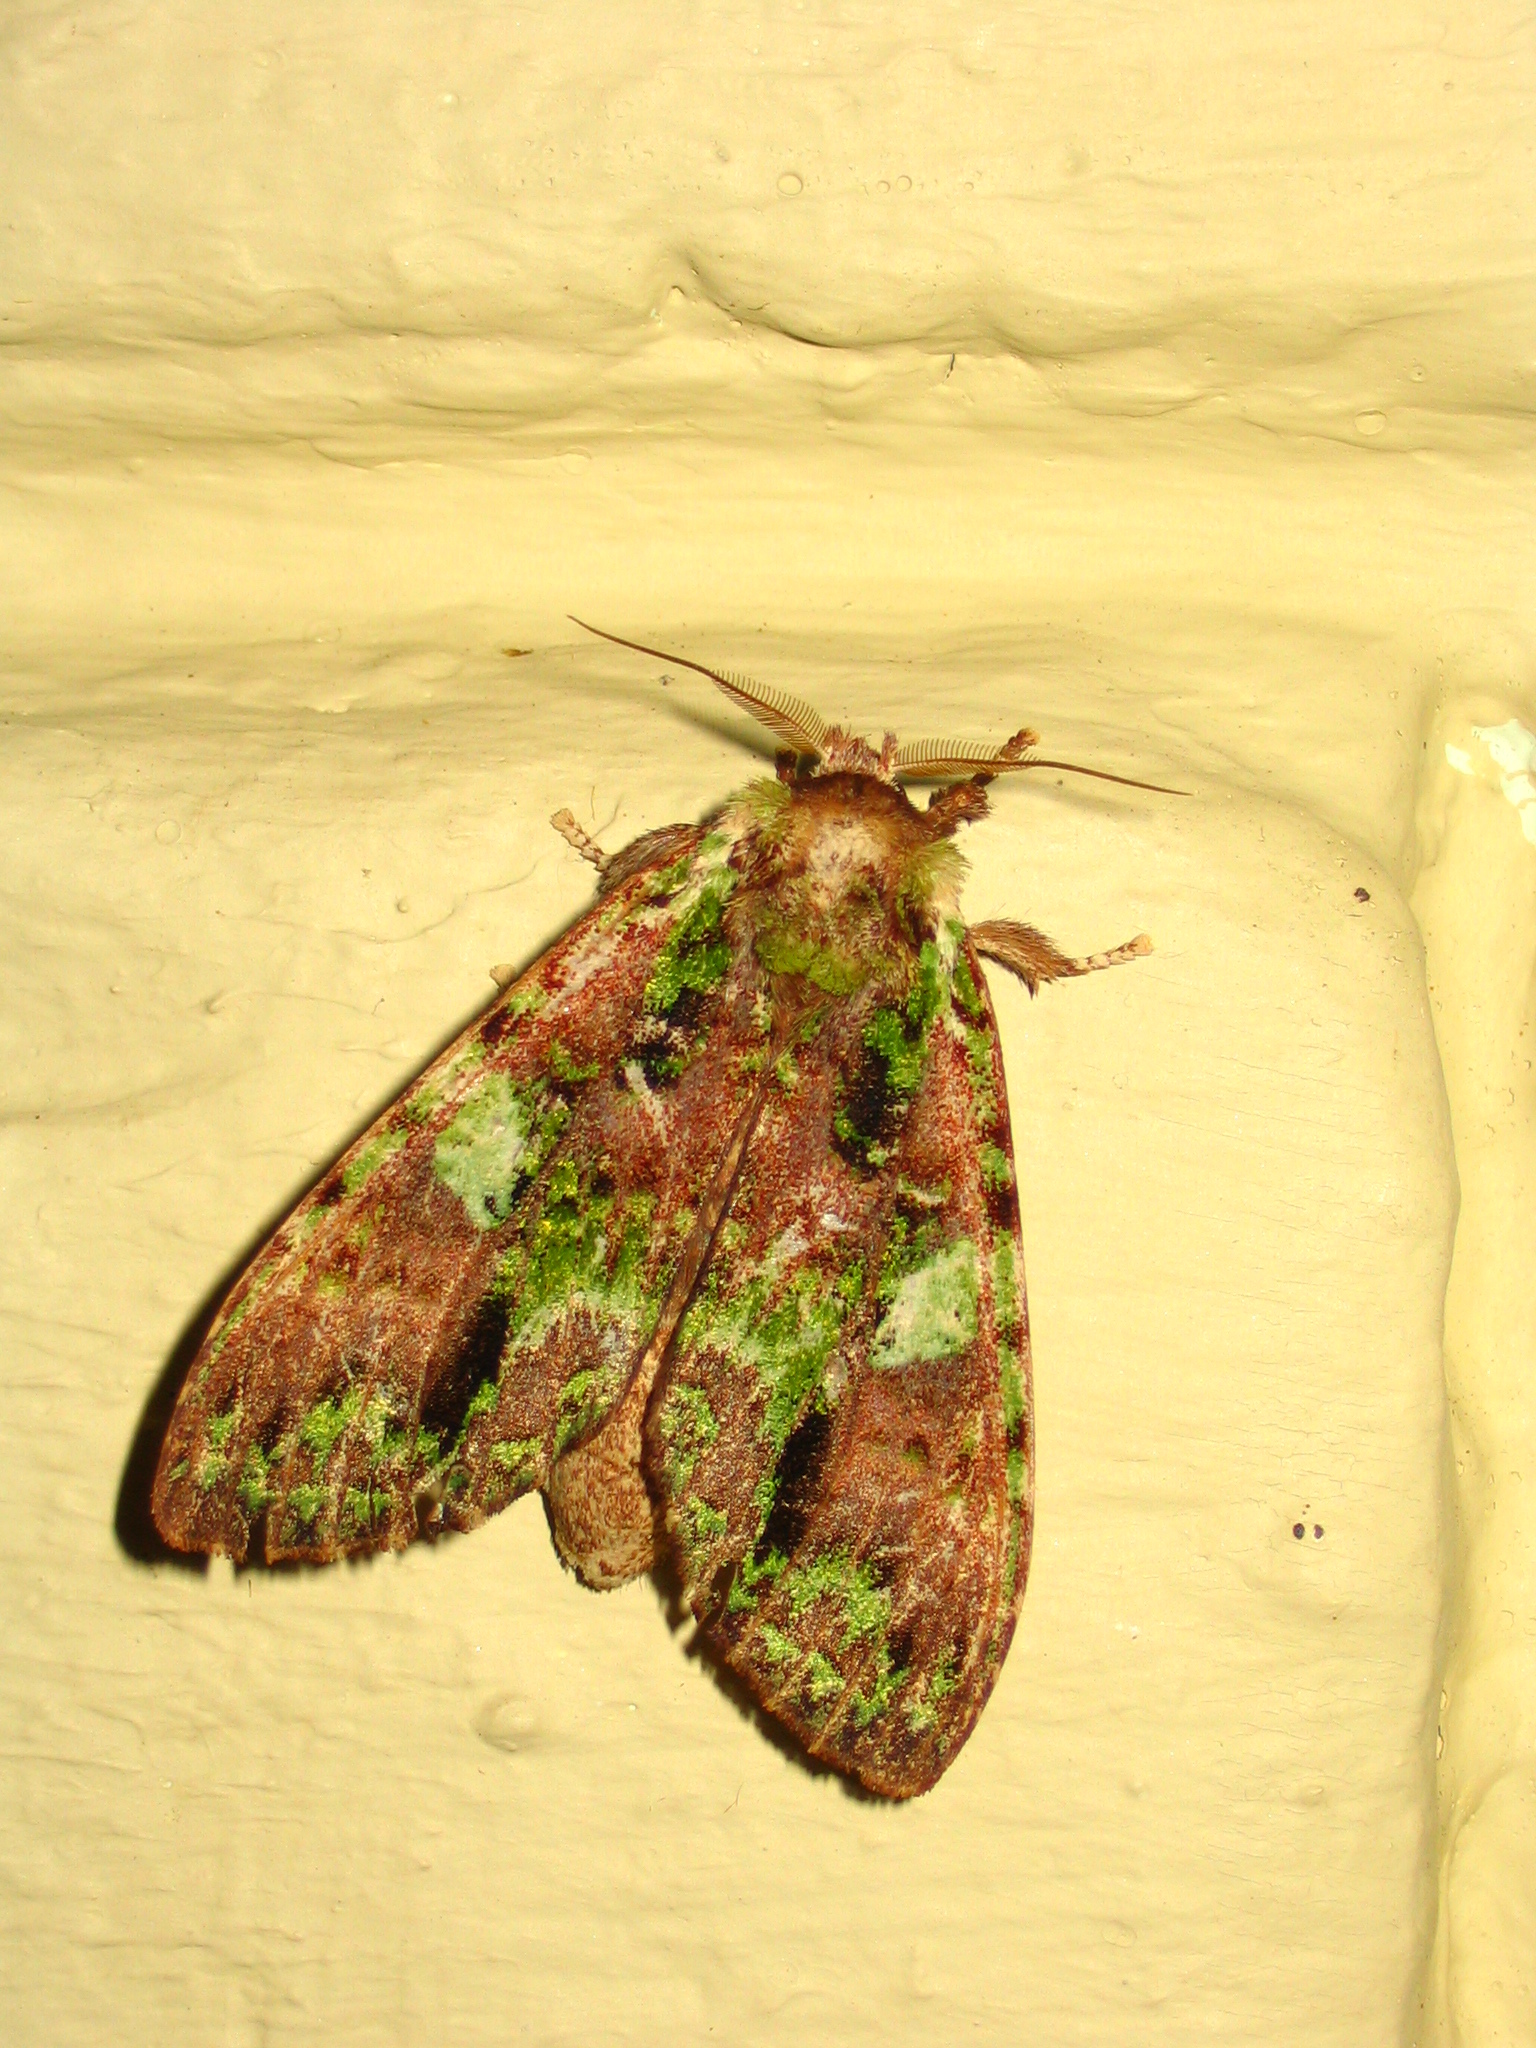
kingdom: Animalia
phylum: Arthropoda
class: Insecta
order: Lepidoptera
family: Notodontidae
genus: Oxoia
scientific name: Oxoia viridipicta
